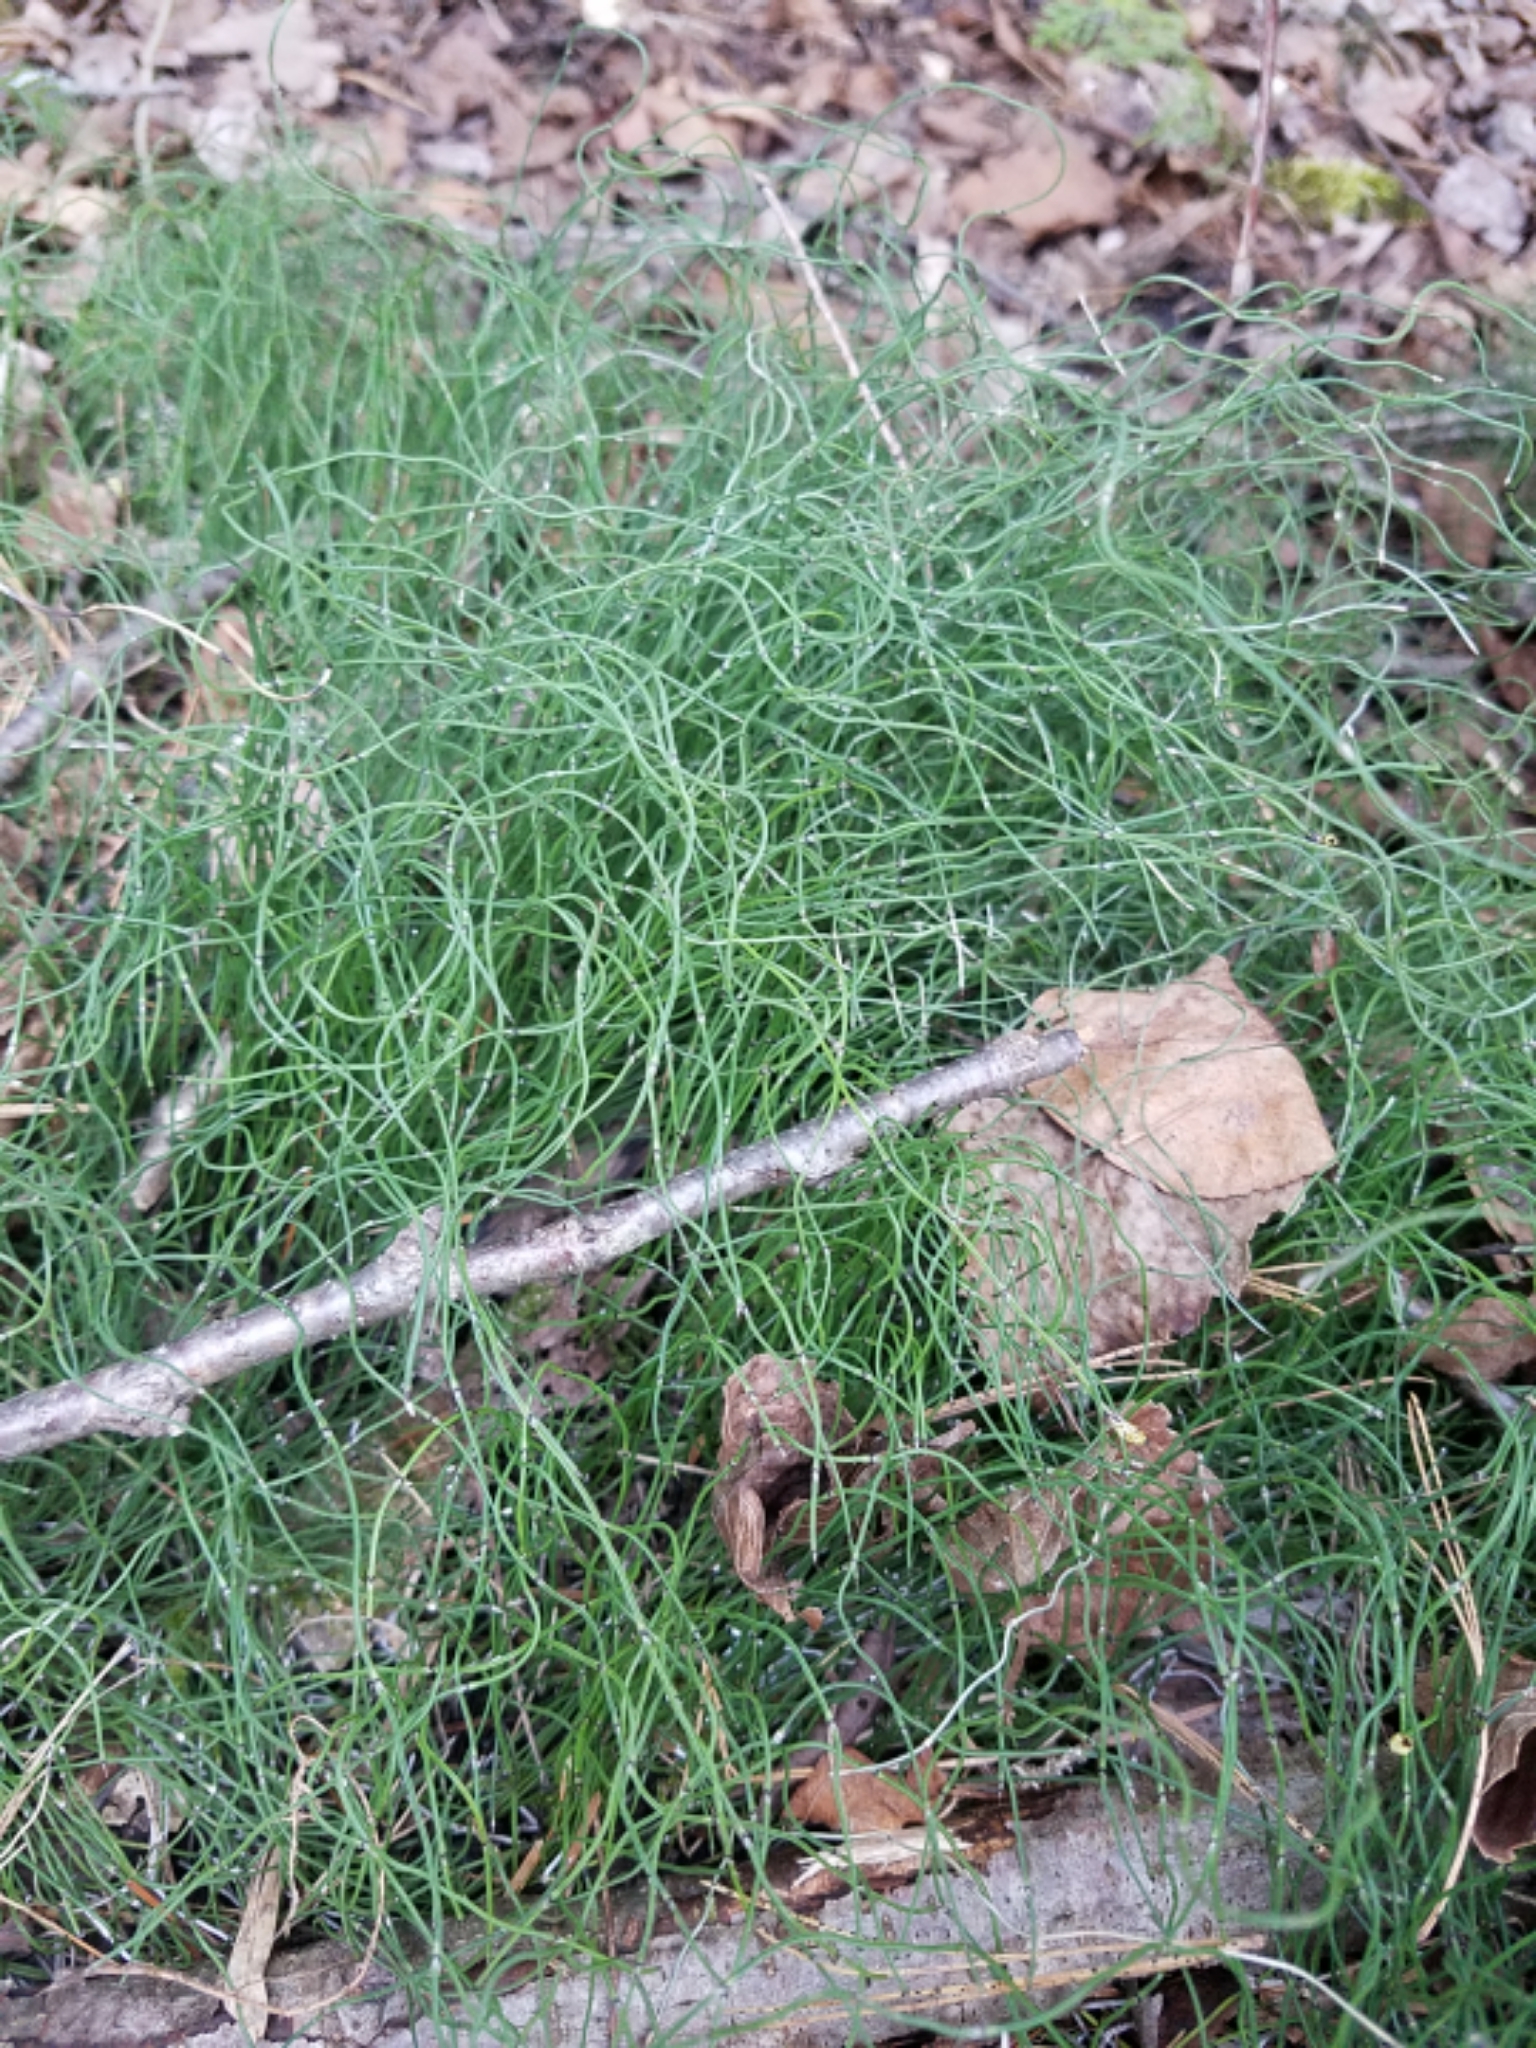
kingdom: Plantae
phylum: Tracheophyta
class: Polypodiopsida
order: Equisetales
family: Equisetaceae
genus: Equisetum
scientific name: Equisetum scirpoides
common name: Delicate horsetail
